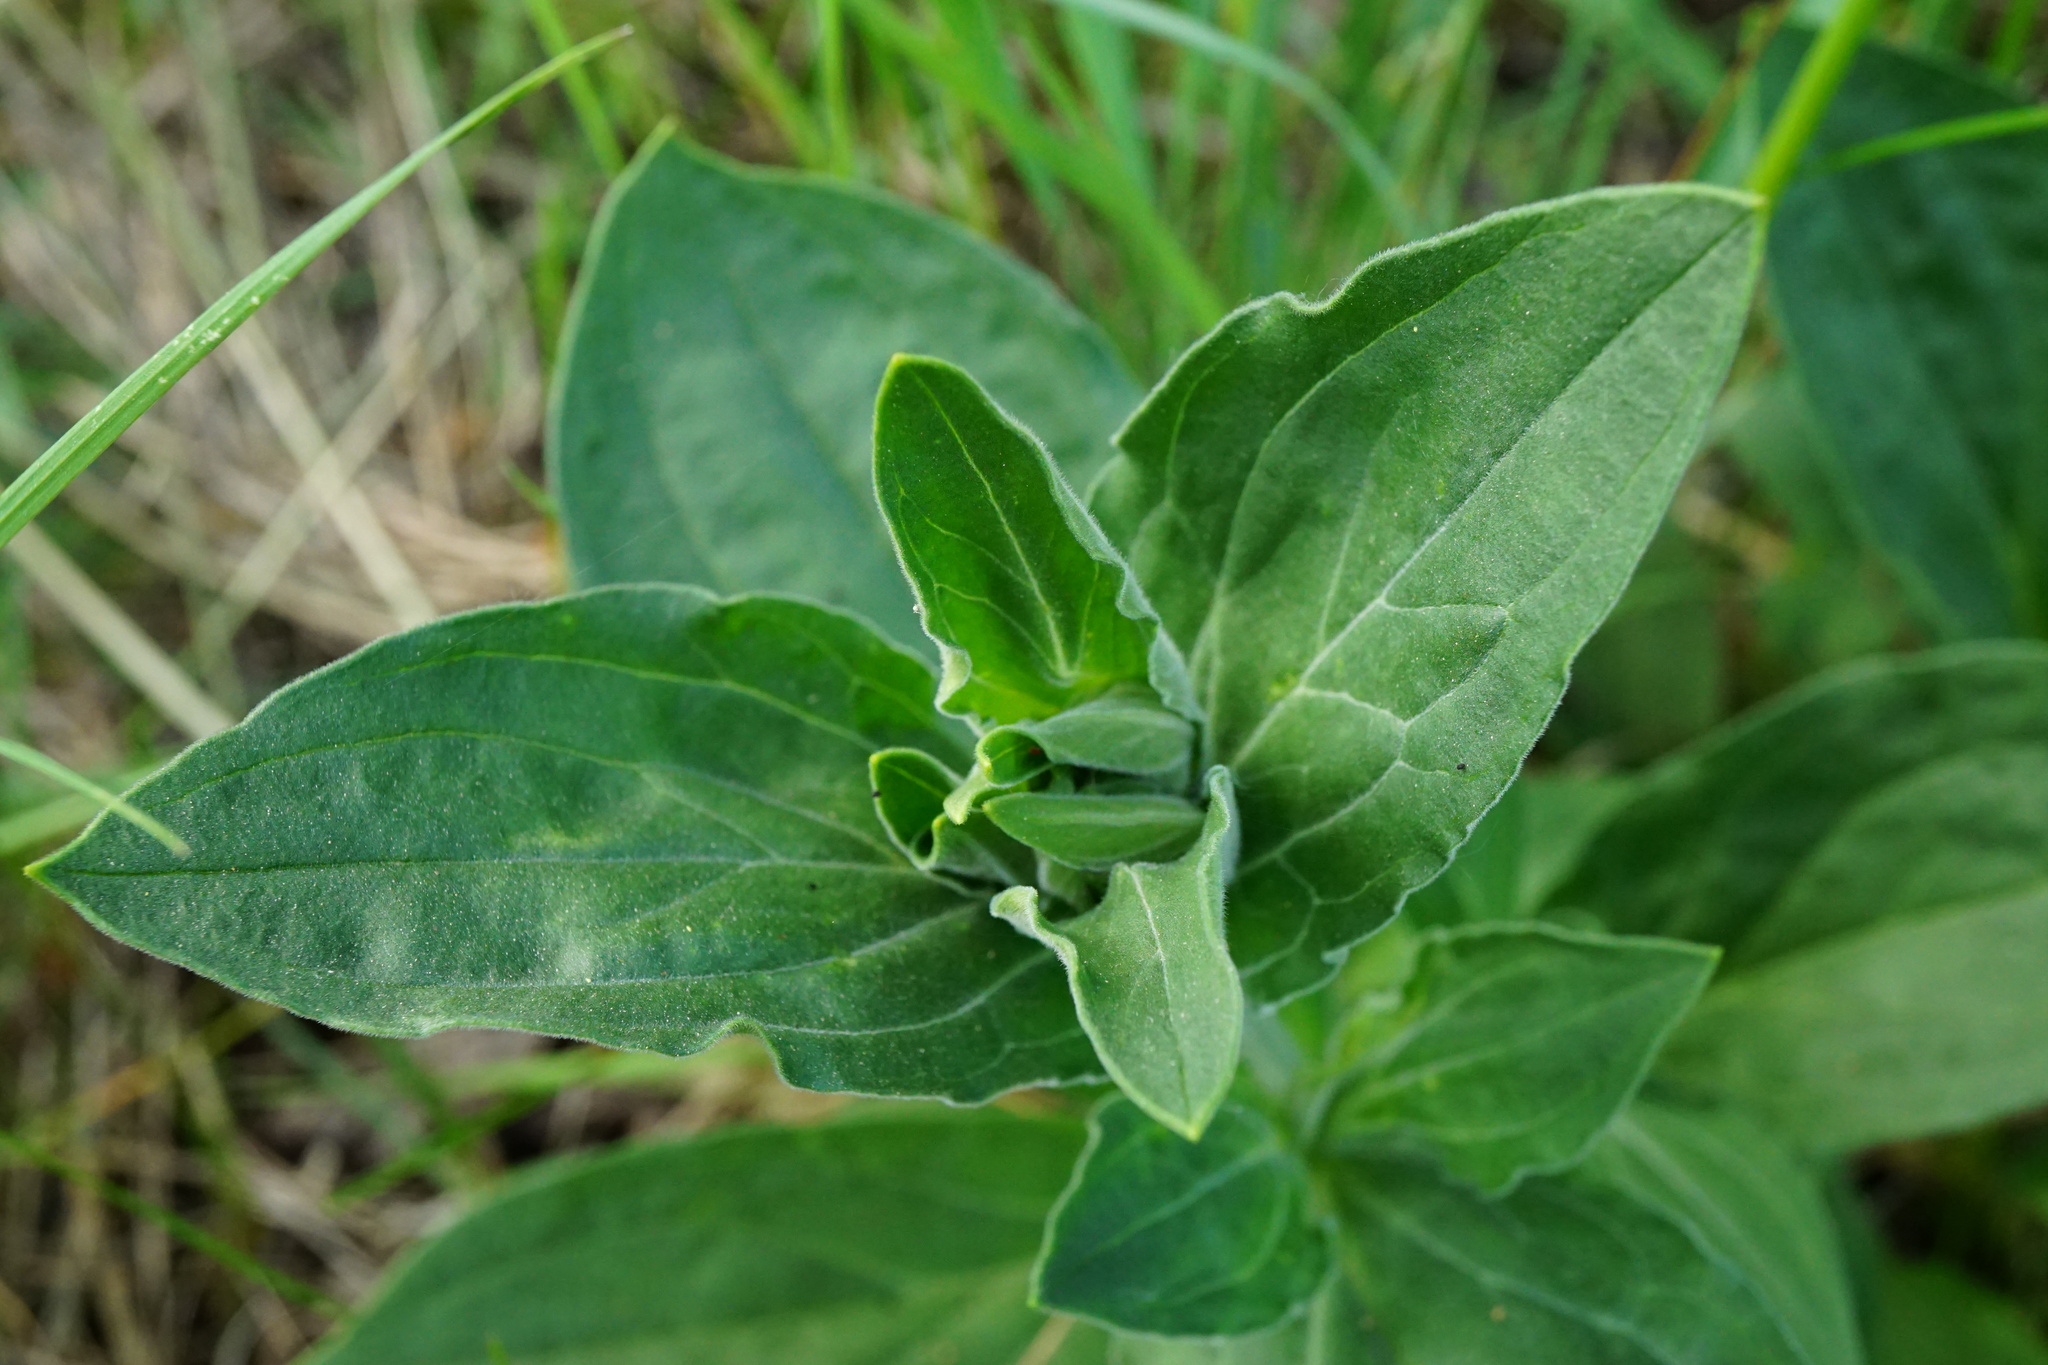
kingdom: Plantae
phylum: Tracheophyta
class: Magnoliopsida
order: Caryophyllales
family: Caryophyllaceae
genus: Silene
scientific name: Silene latifolia
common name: White campion
